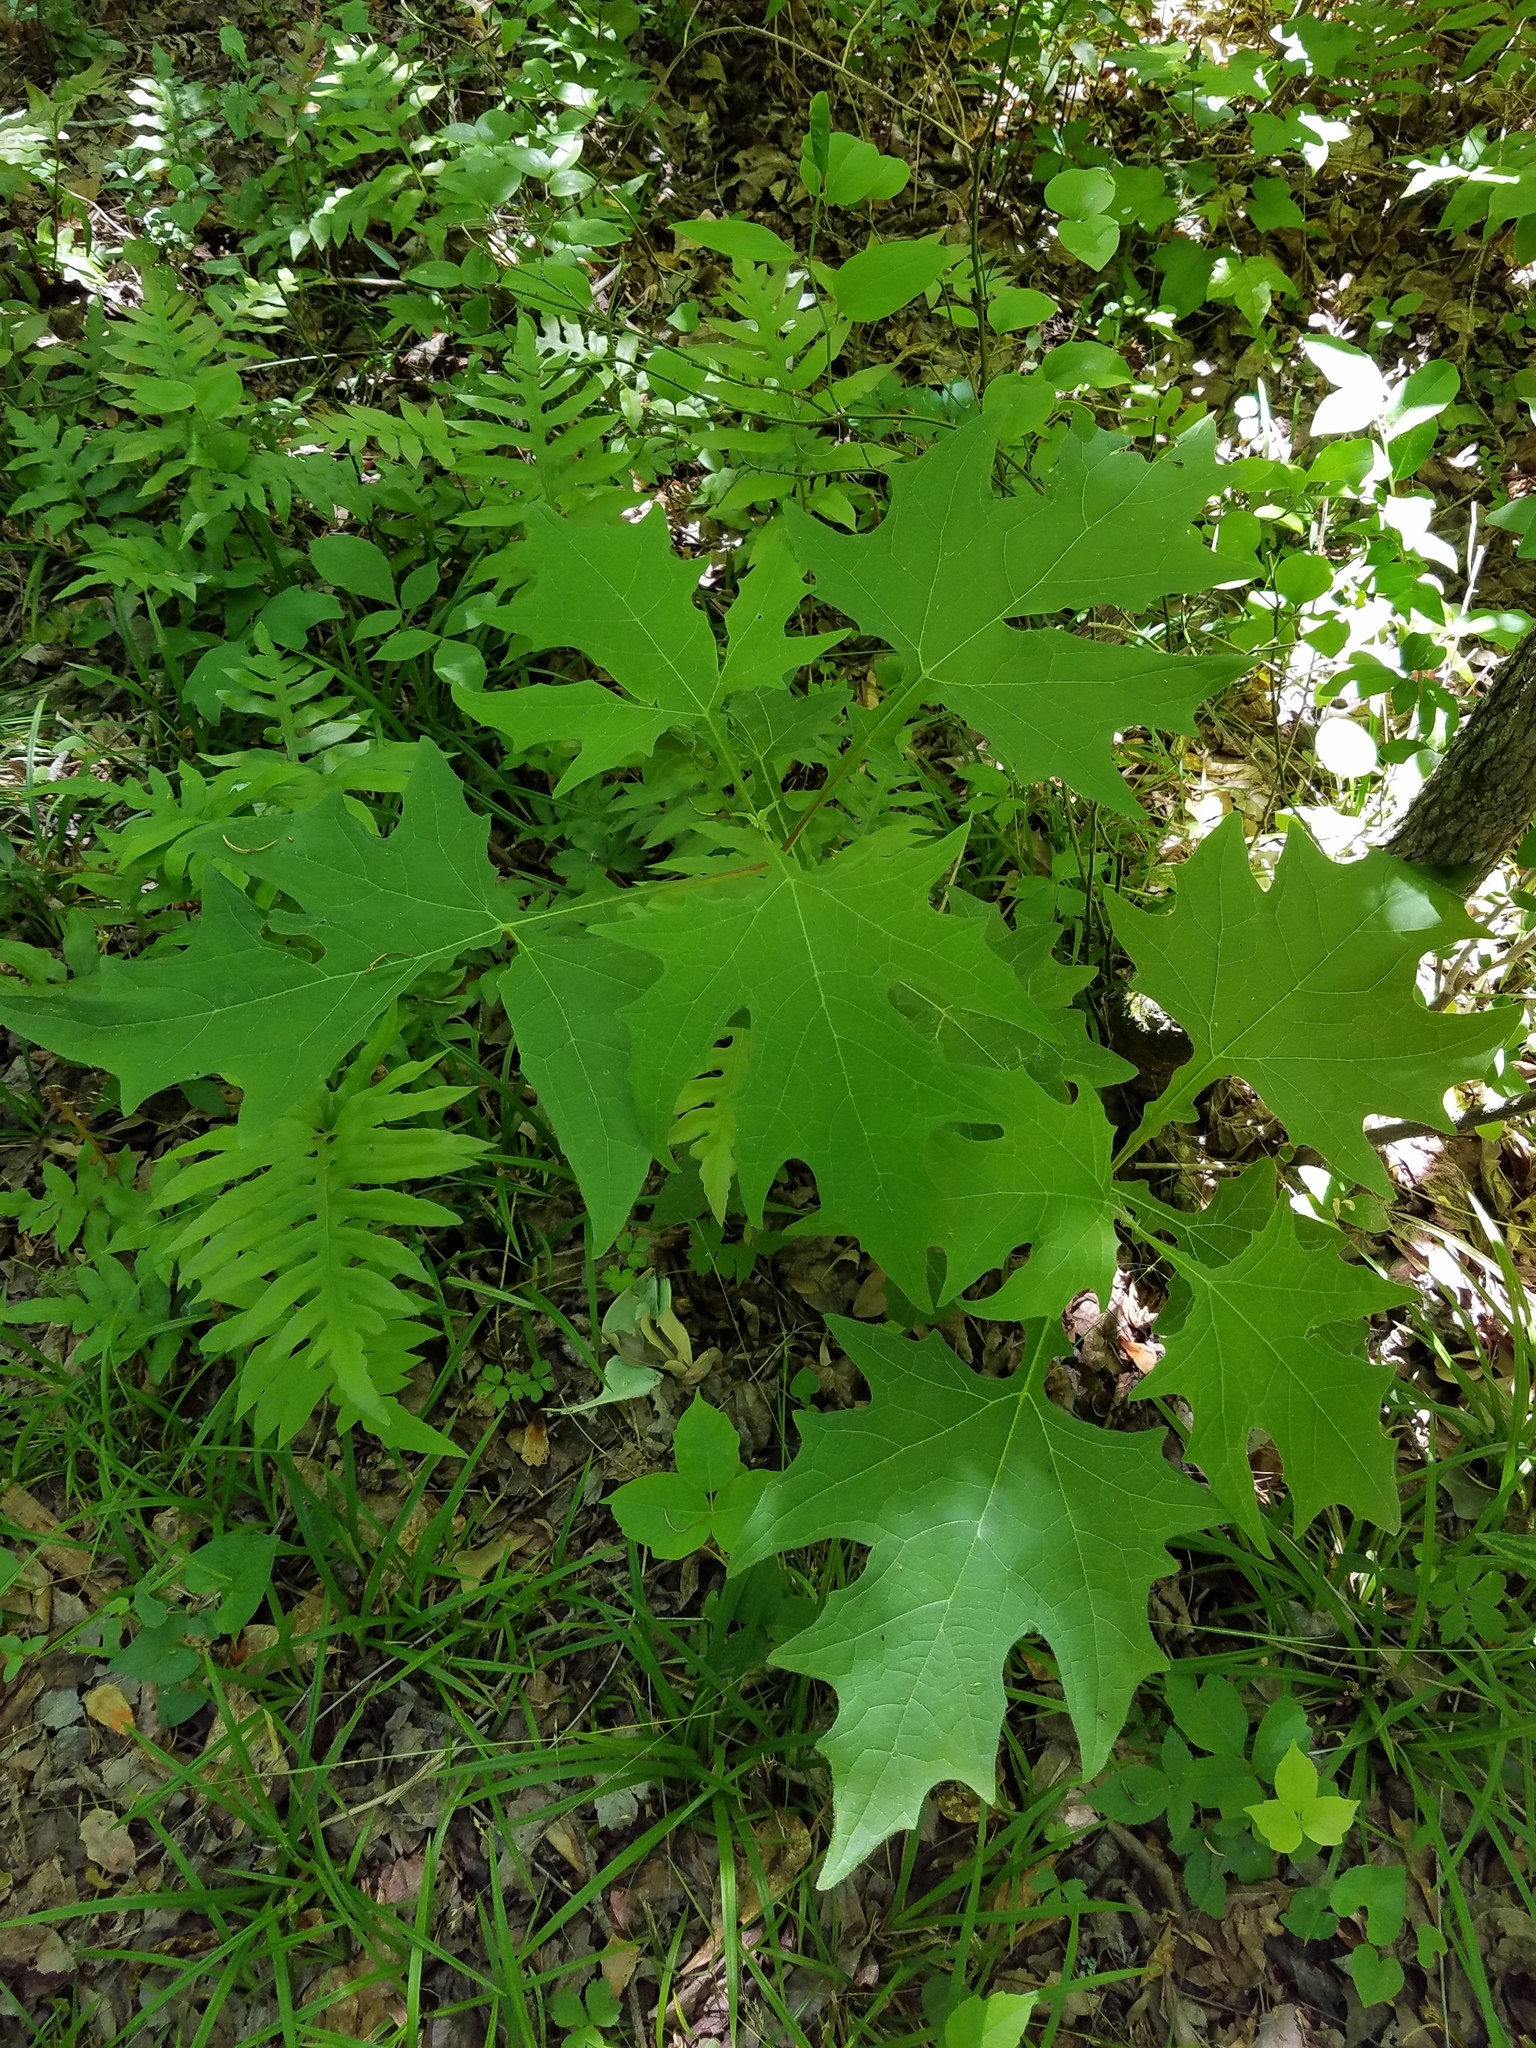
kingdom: Plantae
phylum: Tracheophyta
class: Magnoliopsida
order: Asterales
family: Asteraceae
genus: Smallanthus
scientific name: Smallanthus uvedalia
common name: Bear's-foot
